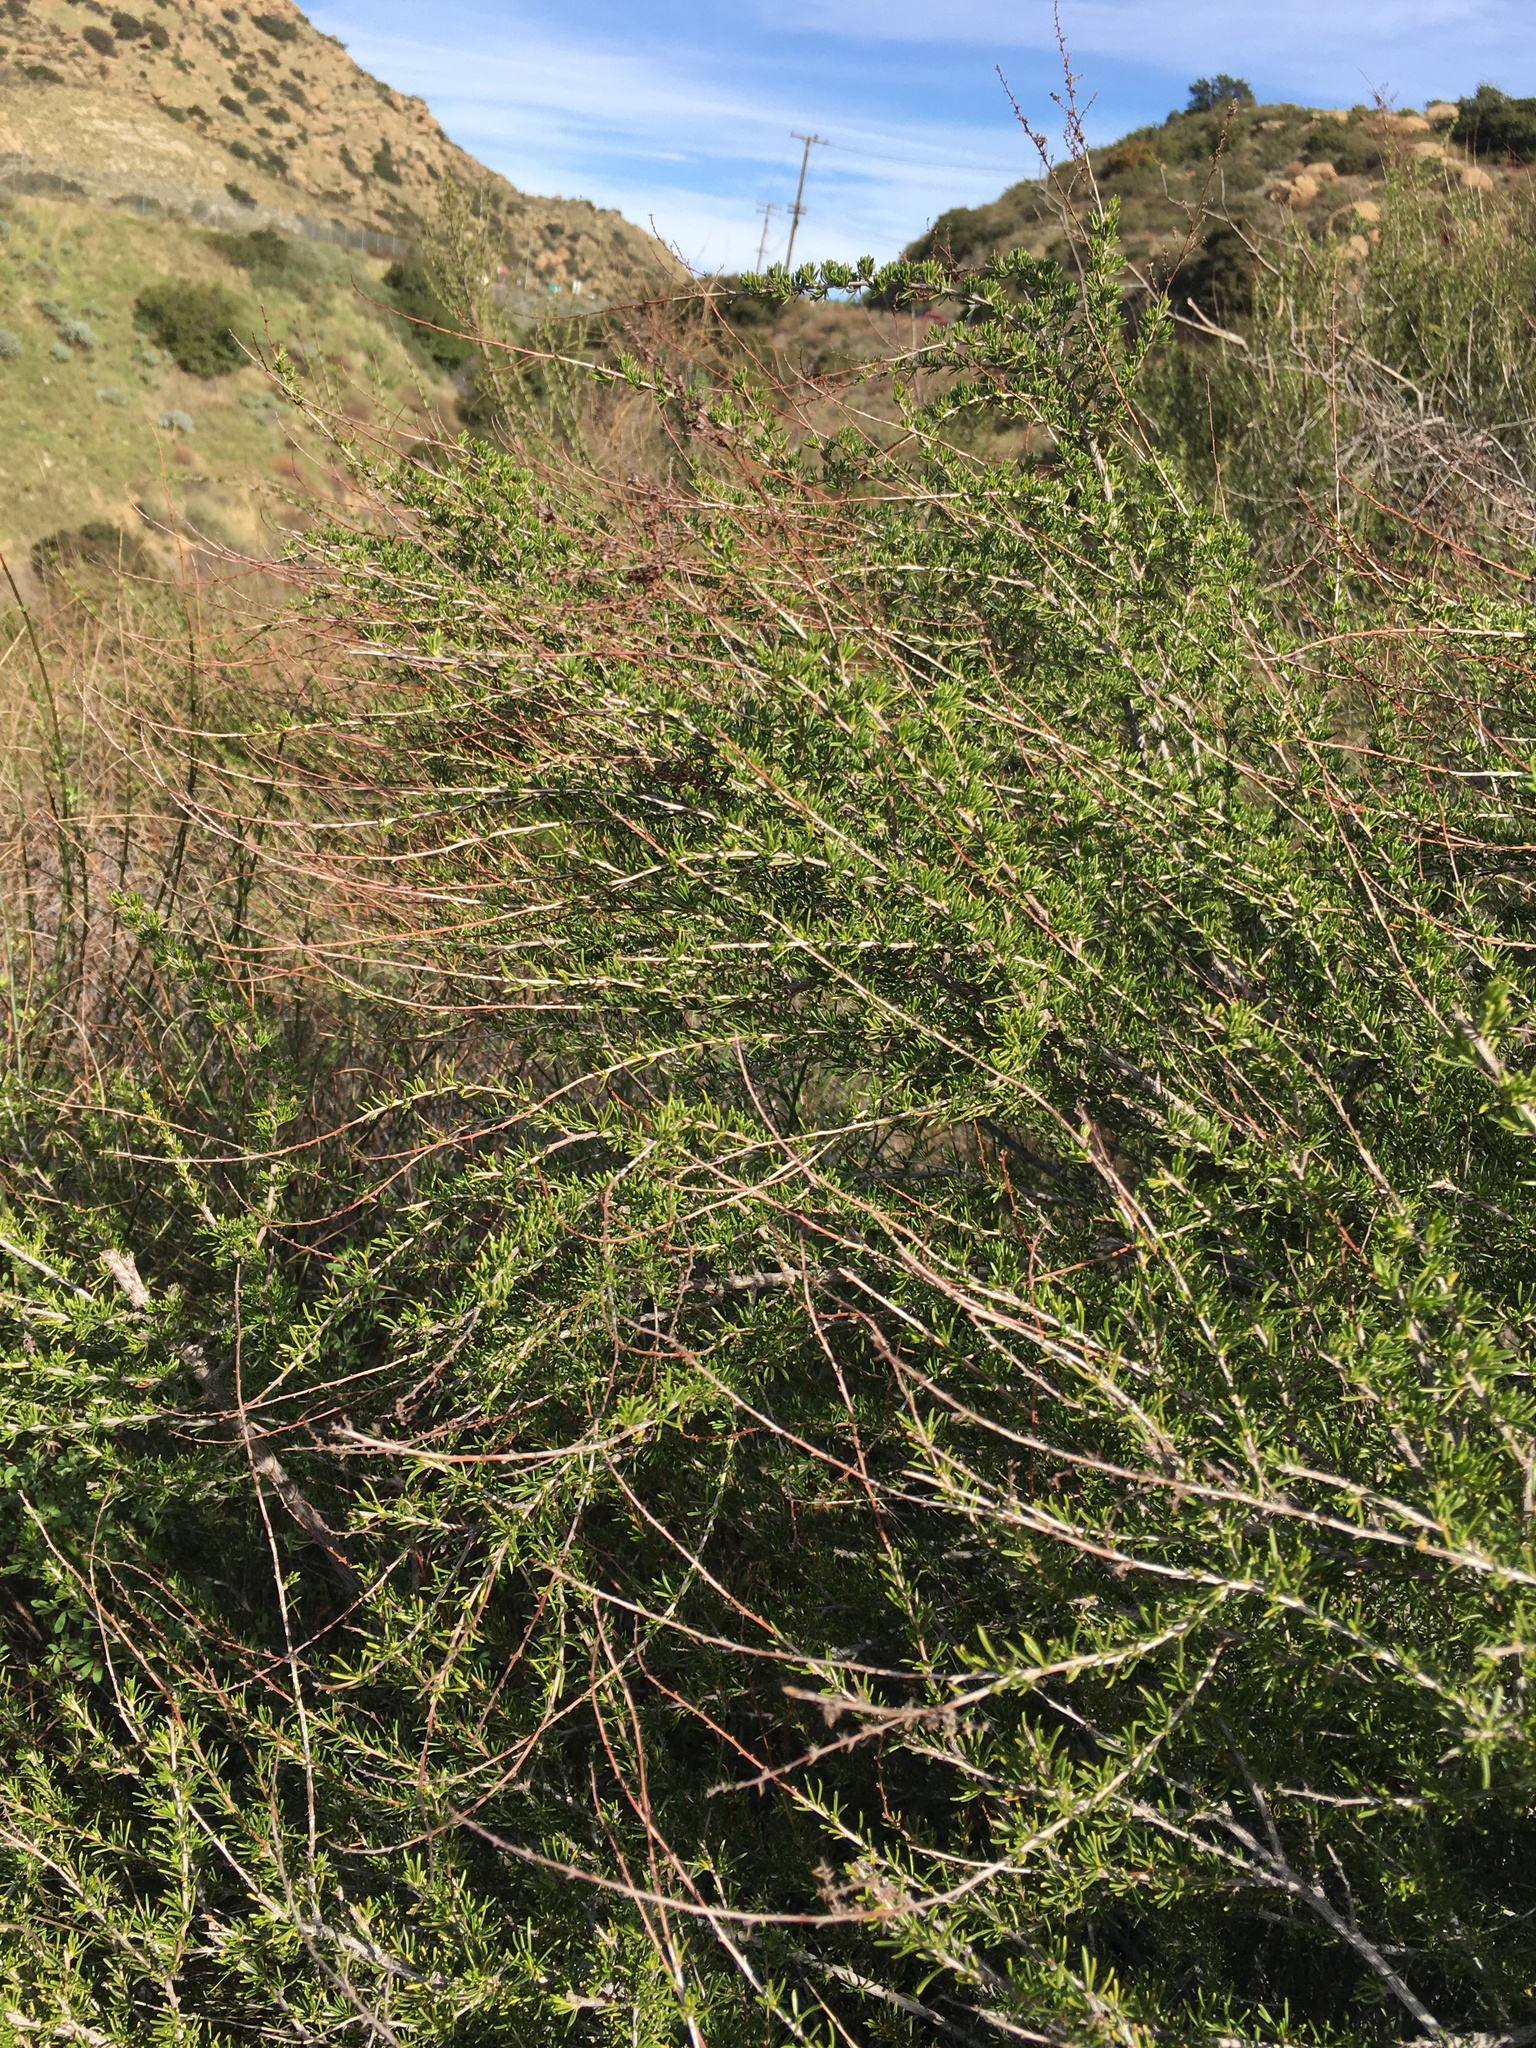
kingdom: Plantae
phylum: Tracheophyta
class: Magnoliopsida
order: Rosales
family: Rosaceae
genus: Adenostoma
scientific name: Adenostoma fasciculatum
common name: Chamise
